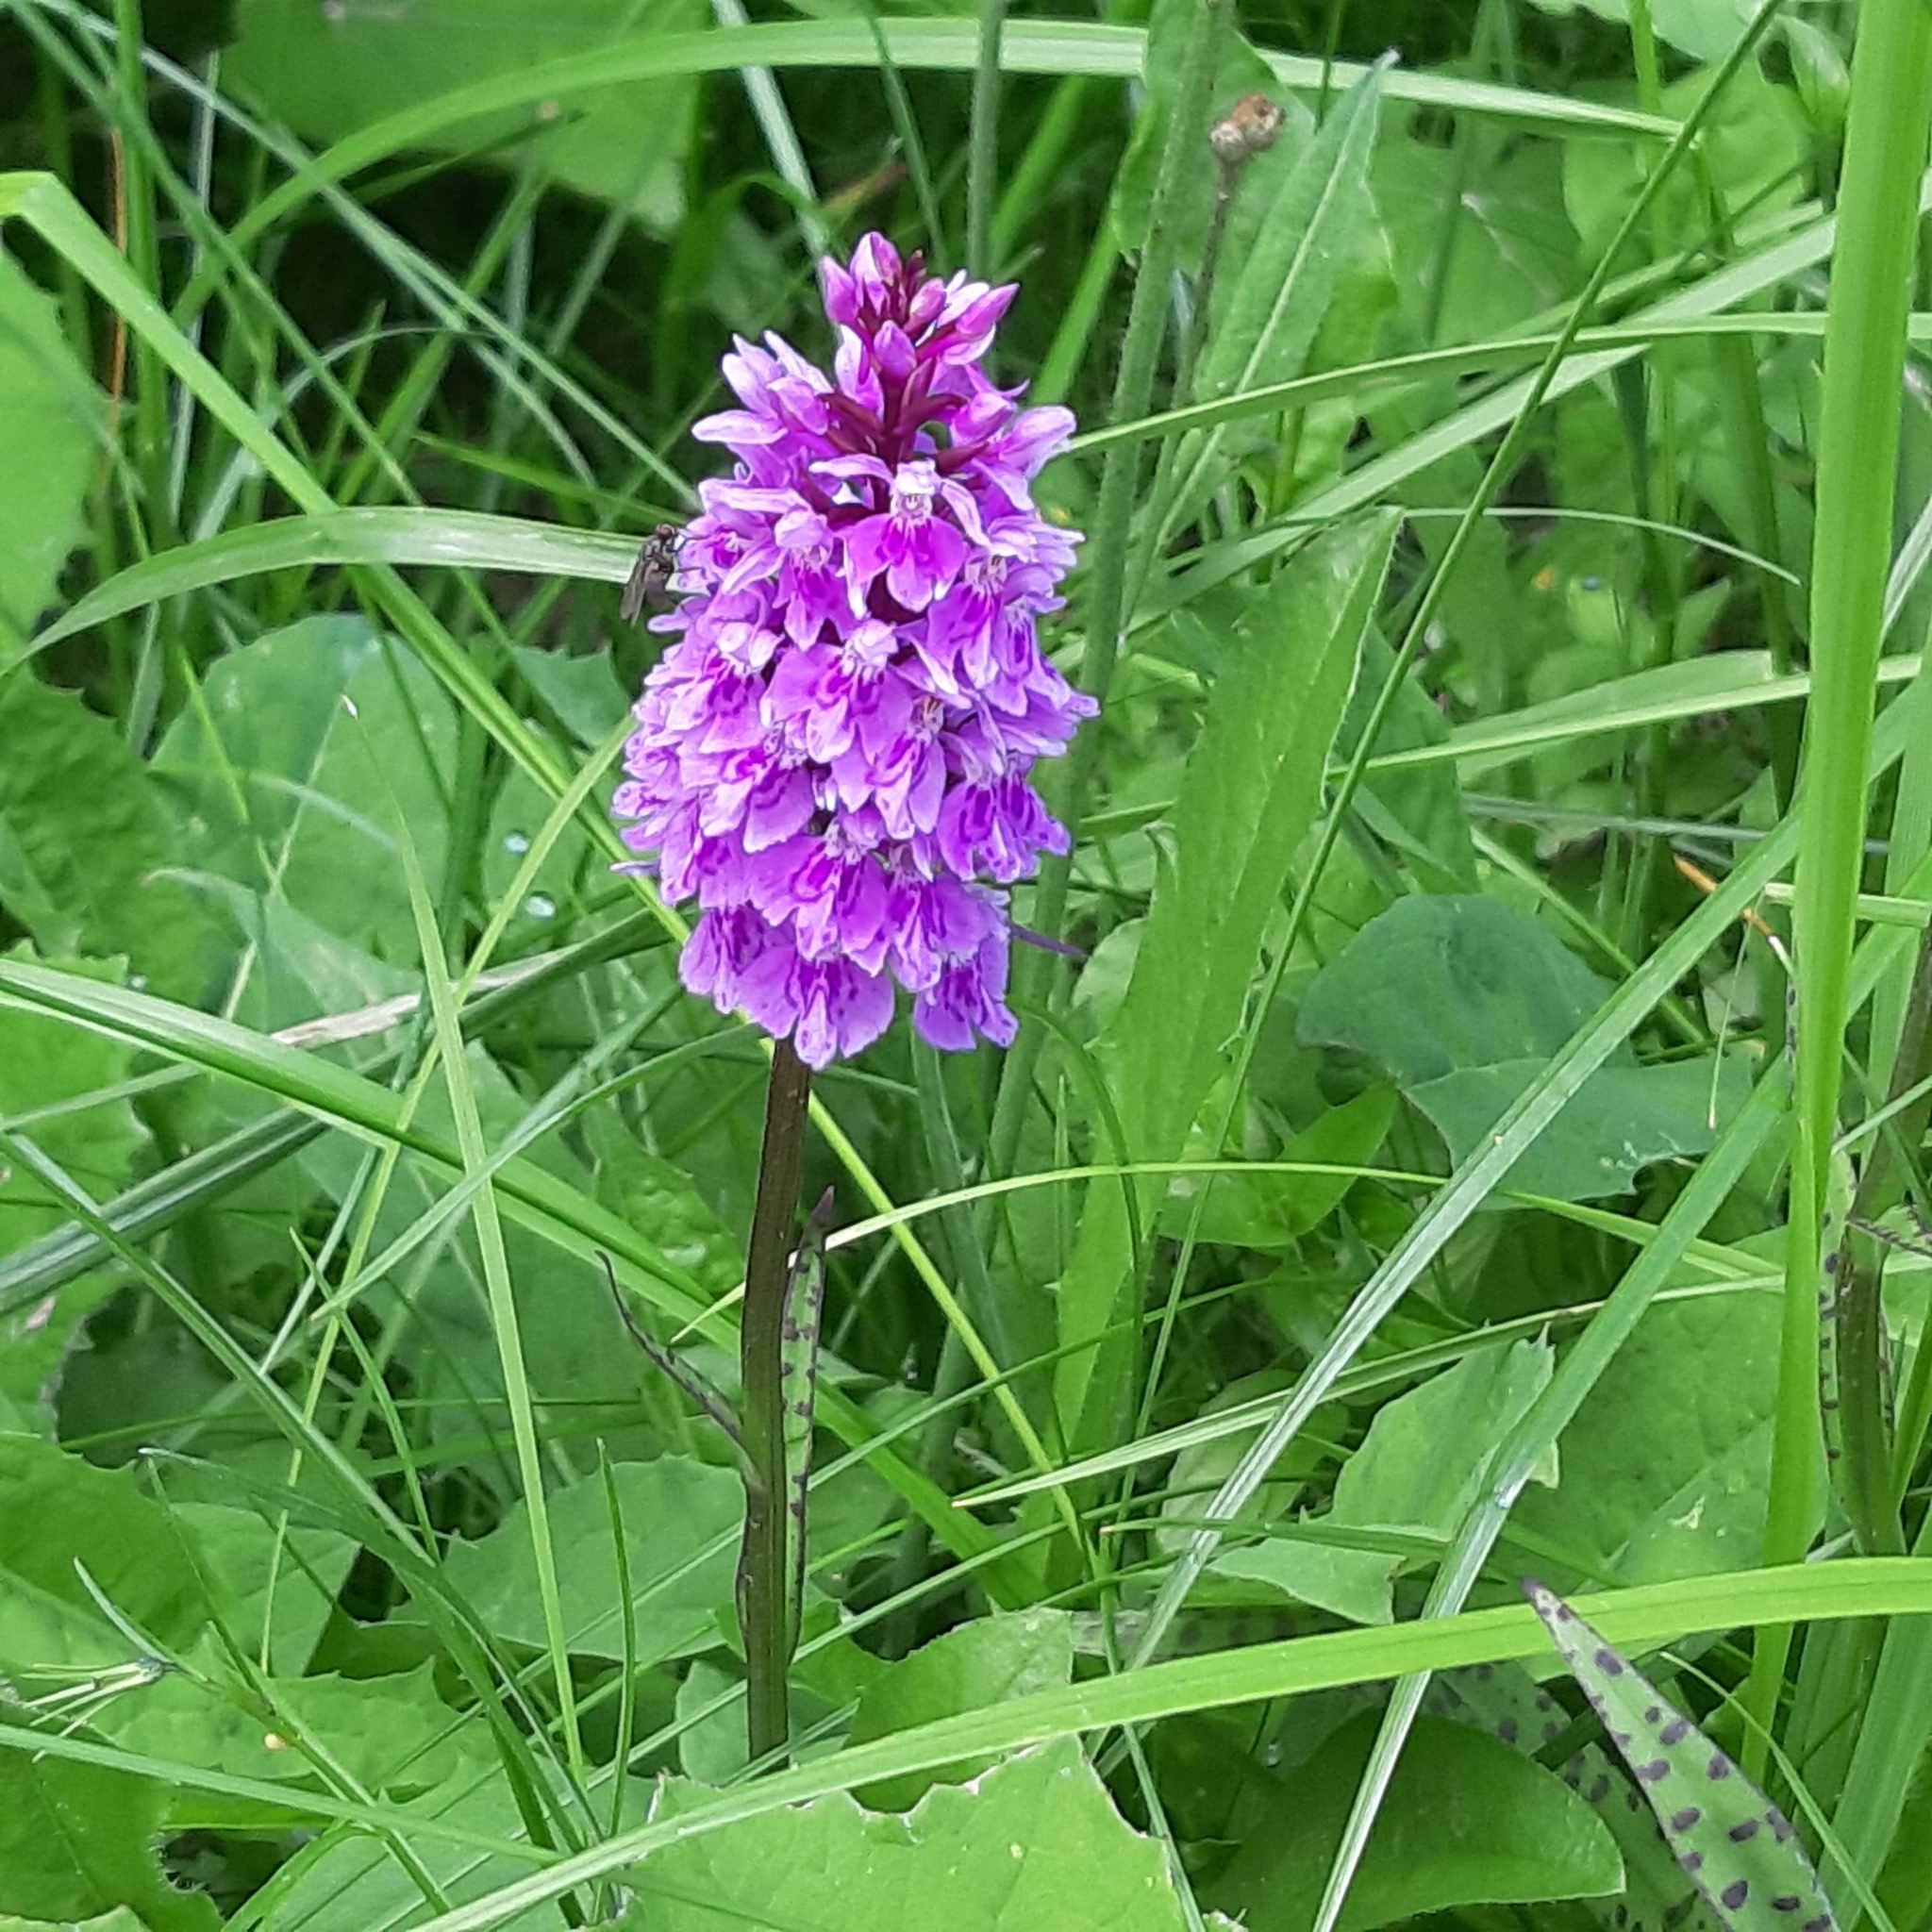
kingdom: Plantae
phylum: Tracheophyta
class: Liliopsida
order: Asparagales
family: Orchidaceae
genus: Dactylorhiza
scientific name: Dactylorhiza maculata
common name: Heath spotted-orchid
